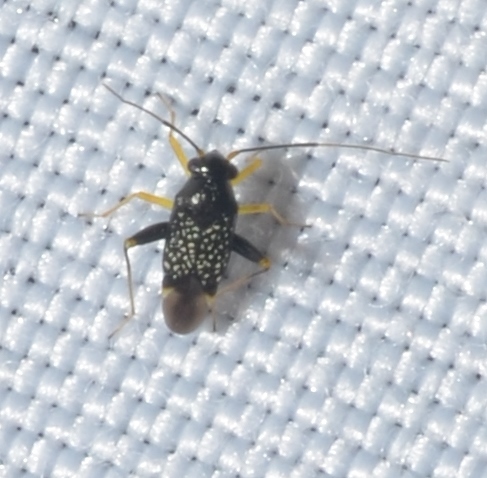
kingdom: Animalia
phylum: Arthropoda
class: Insecta
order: Hemiptera
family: Miridae
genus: Microtechnites
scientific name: Microtechnites bractatus
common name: Garden fleahopper
